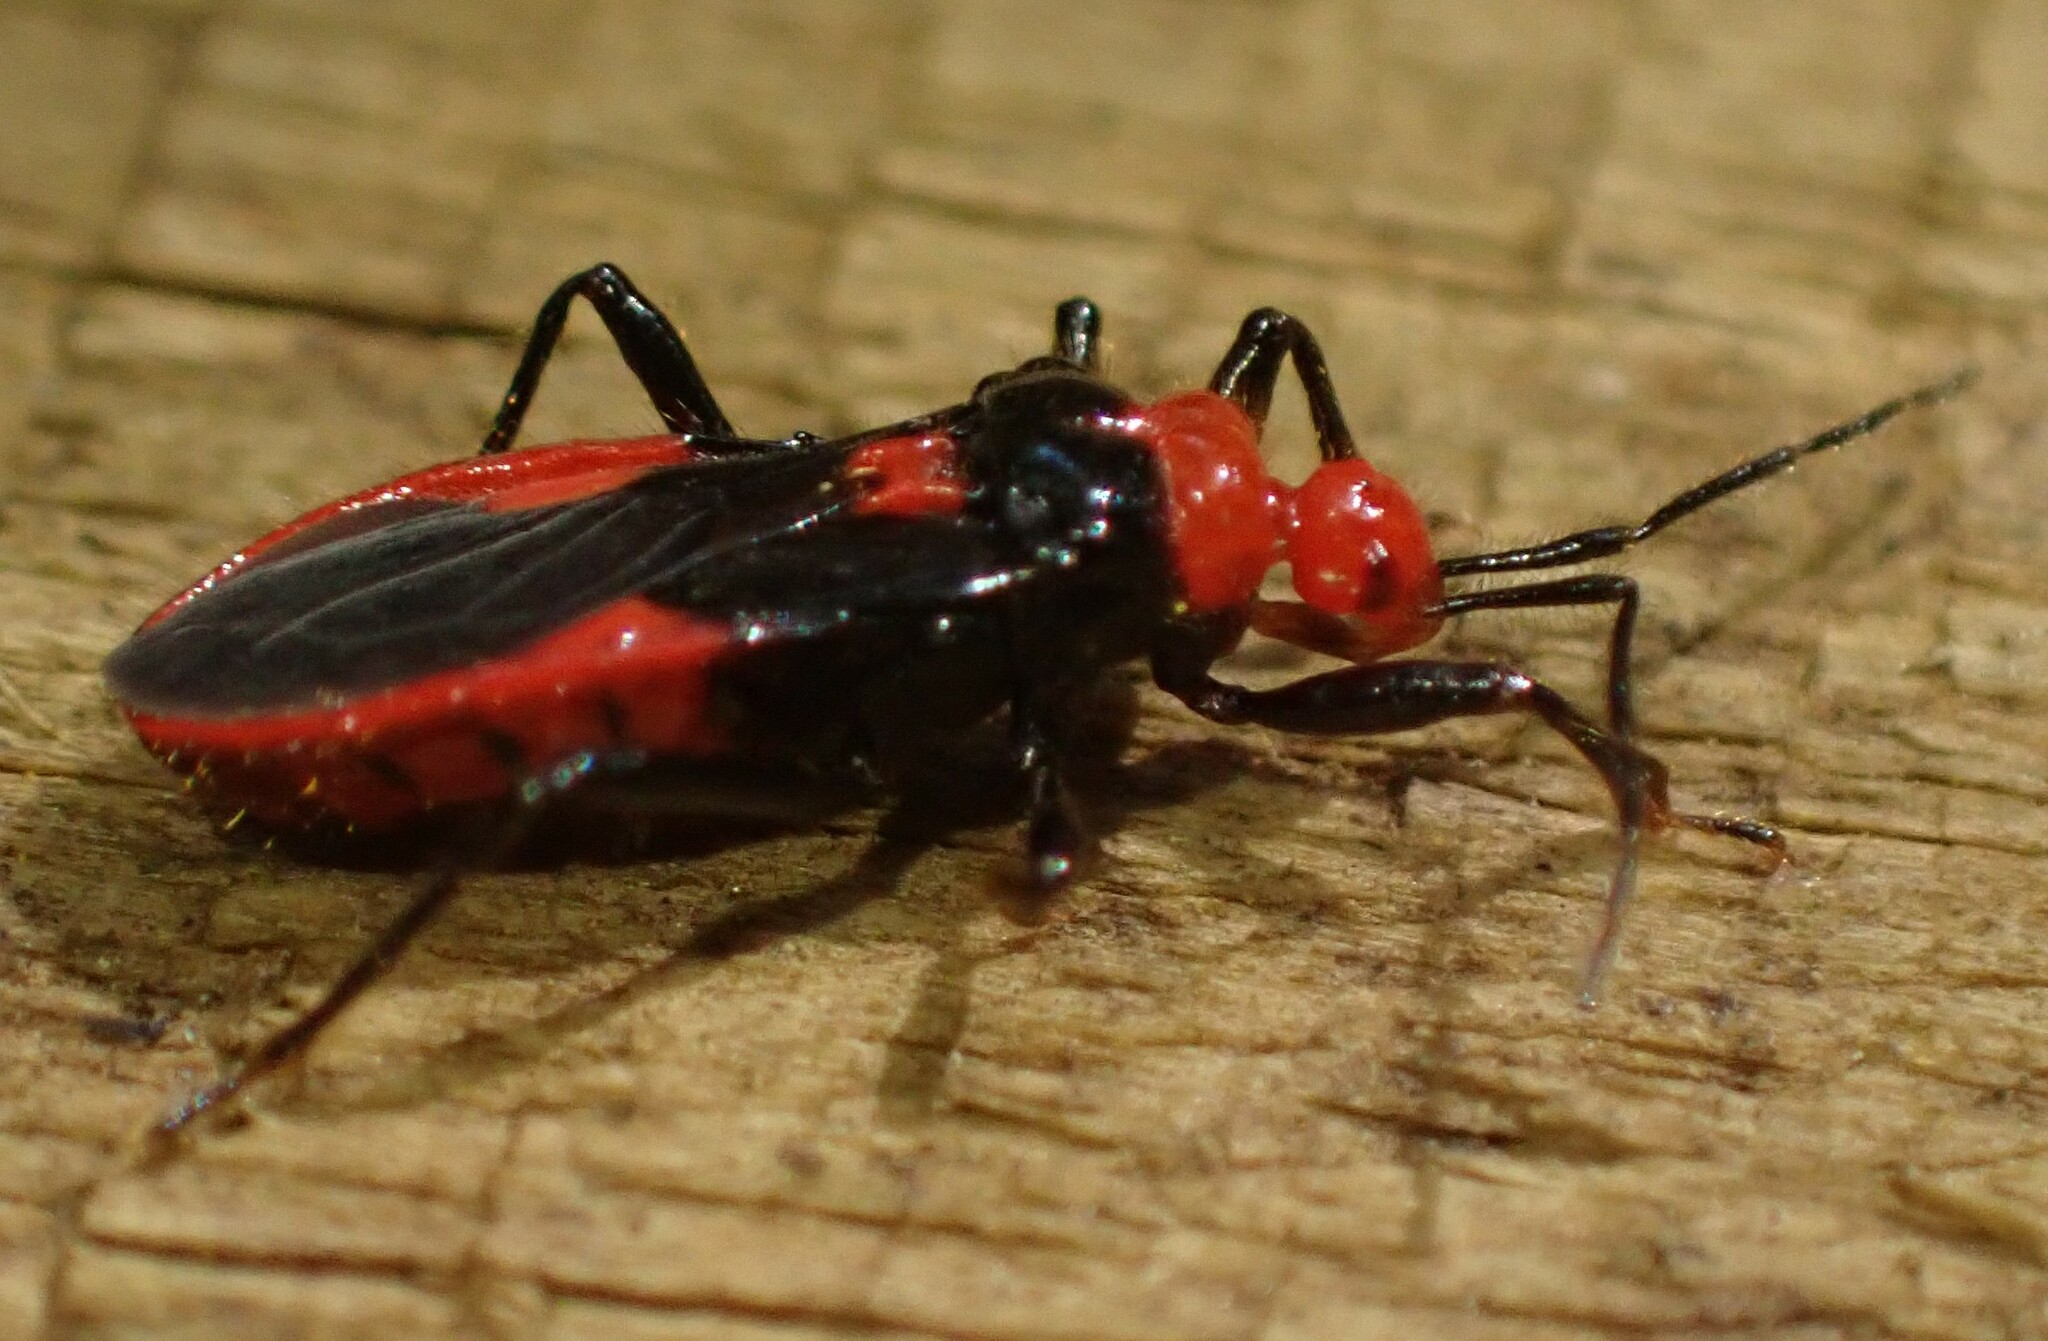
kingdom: Animalia
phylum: Arthropoda
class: Insecta
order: Hemiptera
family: Reduviidae
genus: Nebriscus
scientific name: Nebriscus pupus
